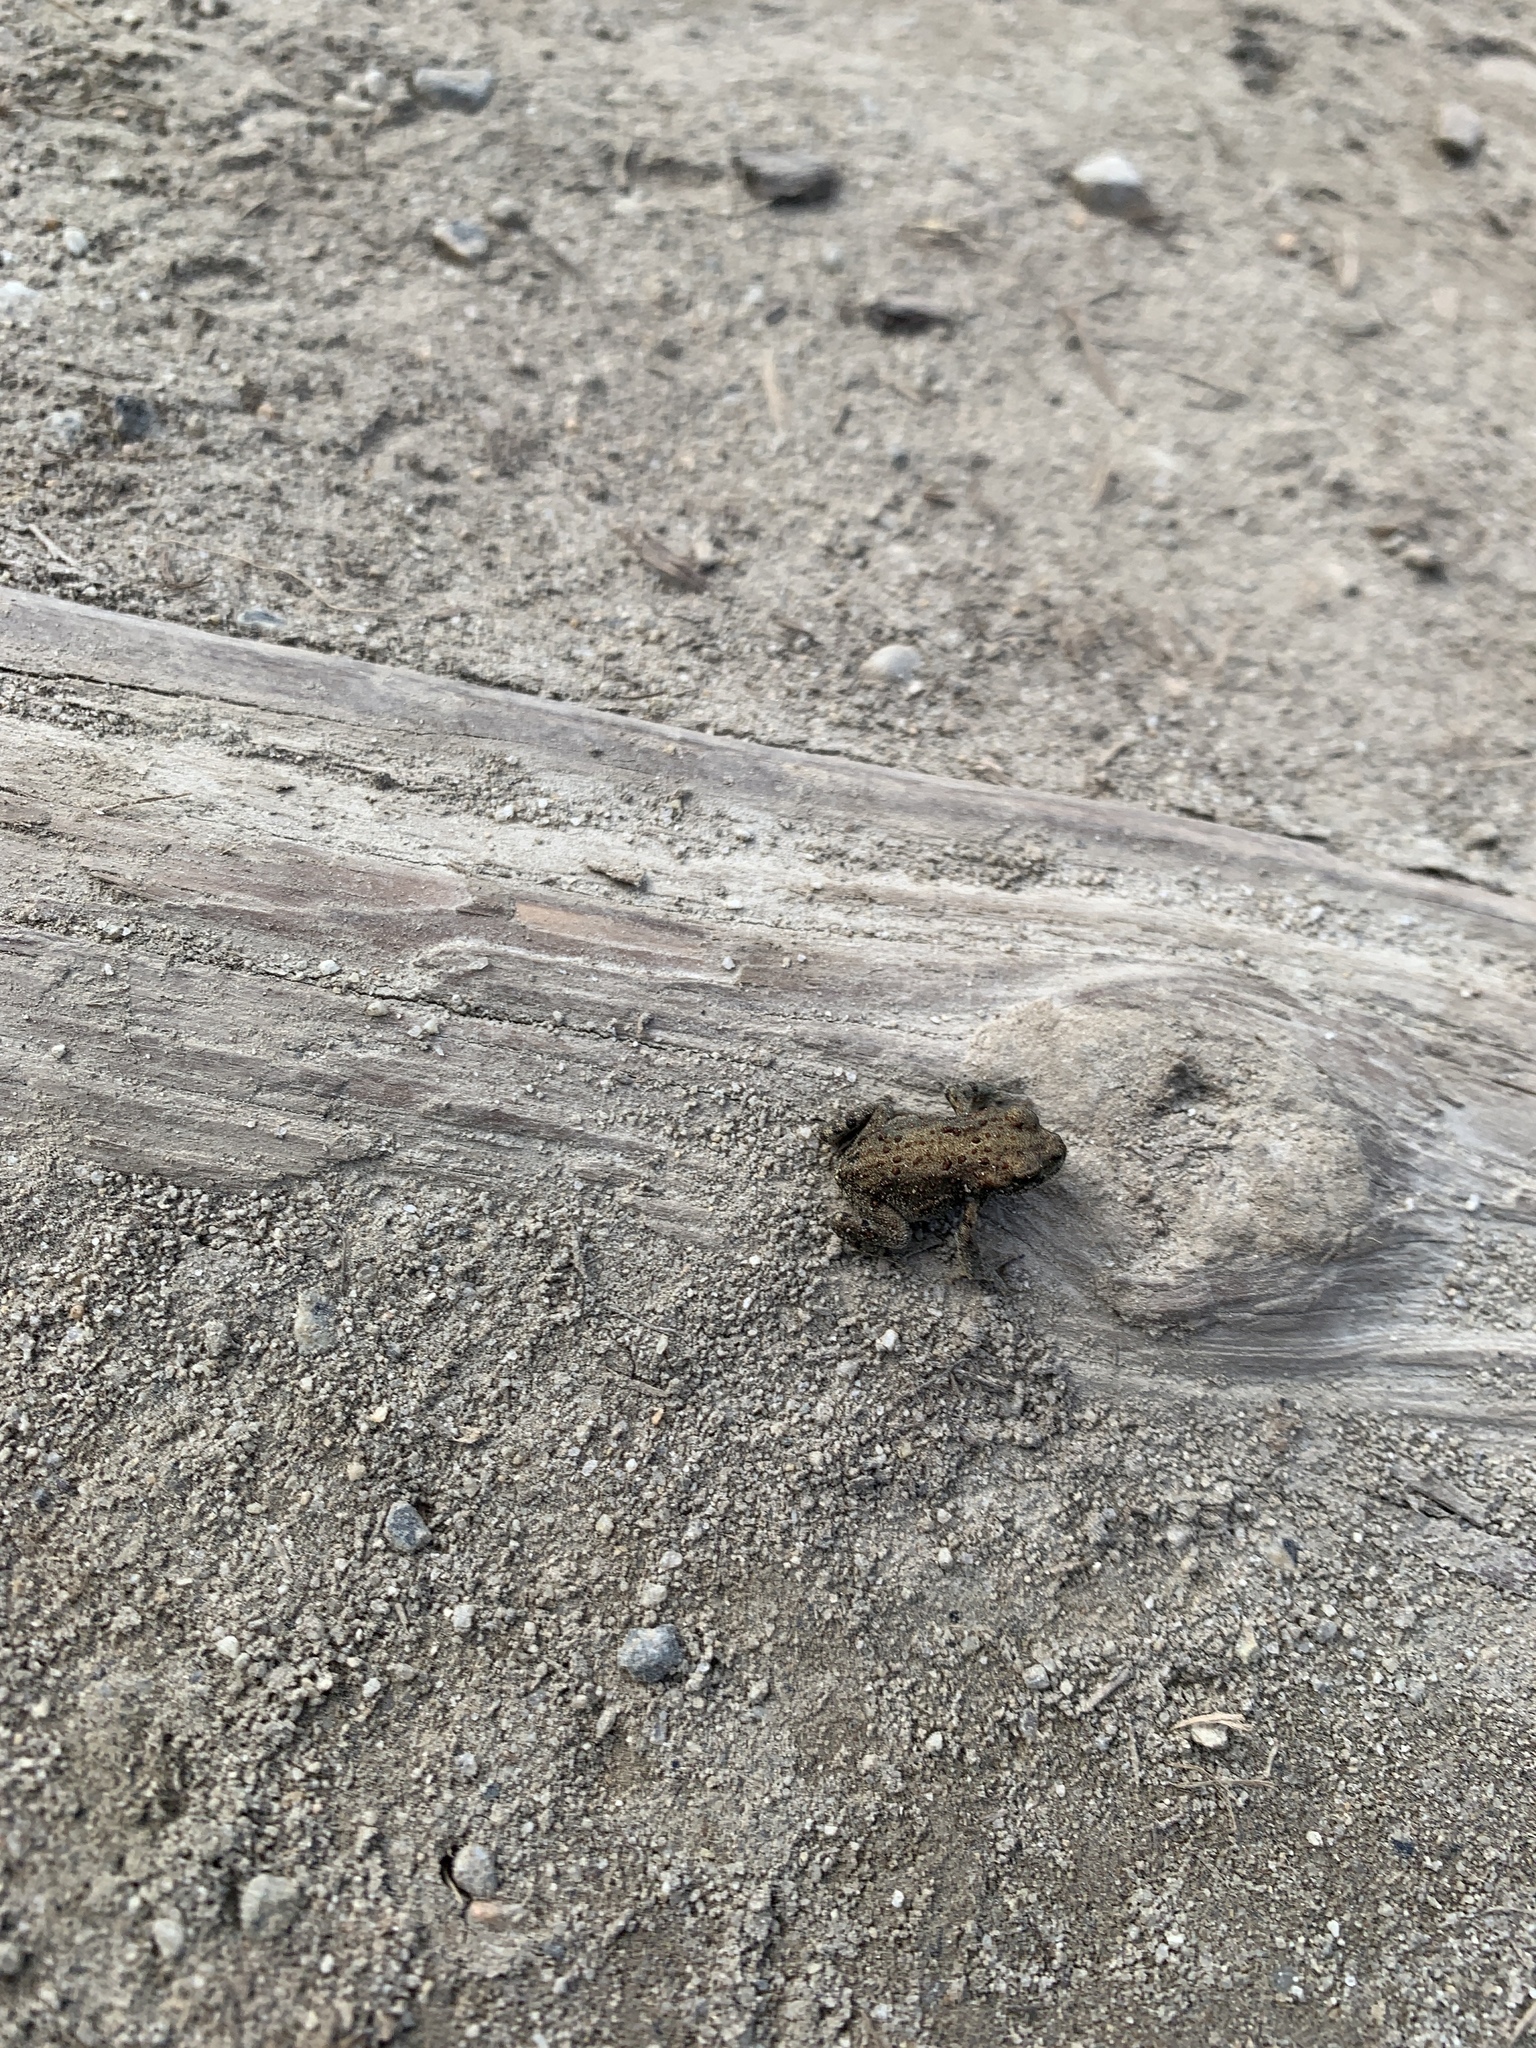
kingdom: Animalia
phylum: Chordata
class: Amphibia
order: Anura
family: Bufonidae
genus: Anaxyrus
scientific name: Anaxyrus boreas
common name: Western toad
